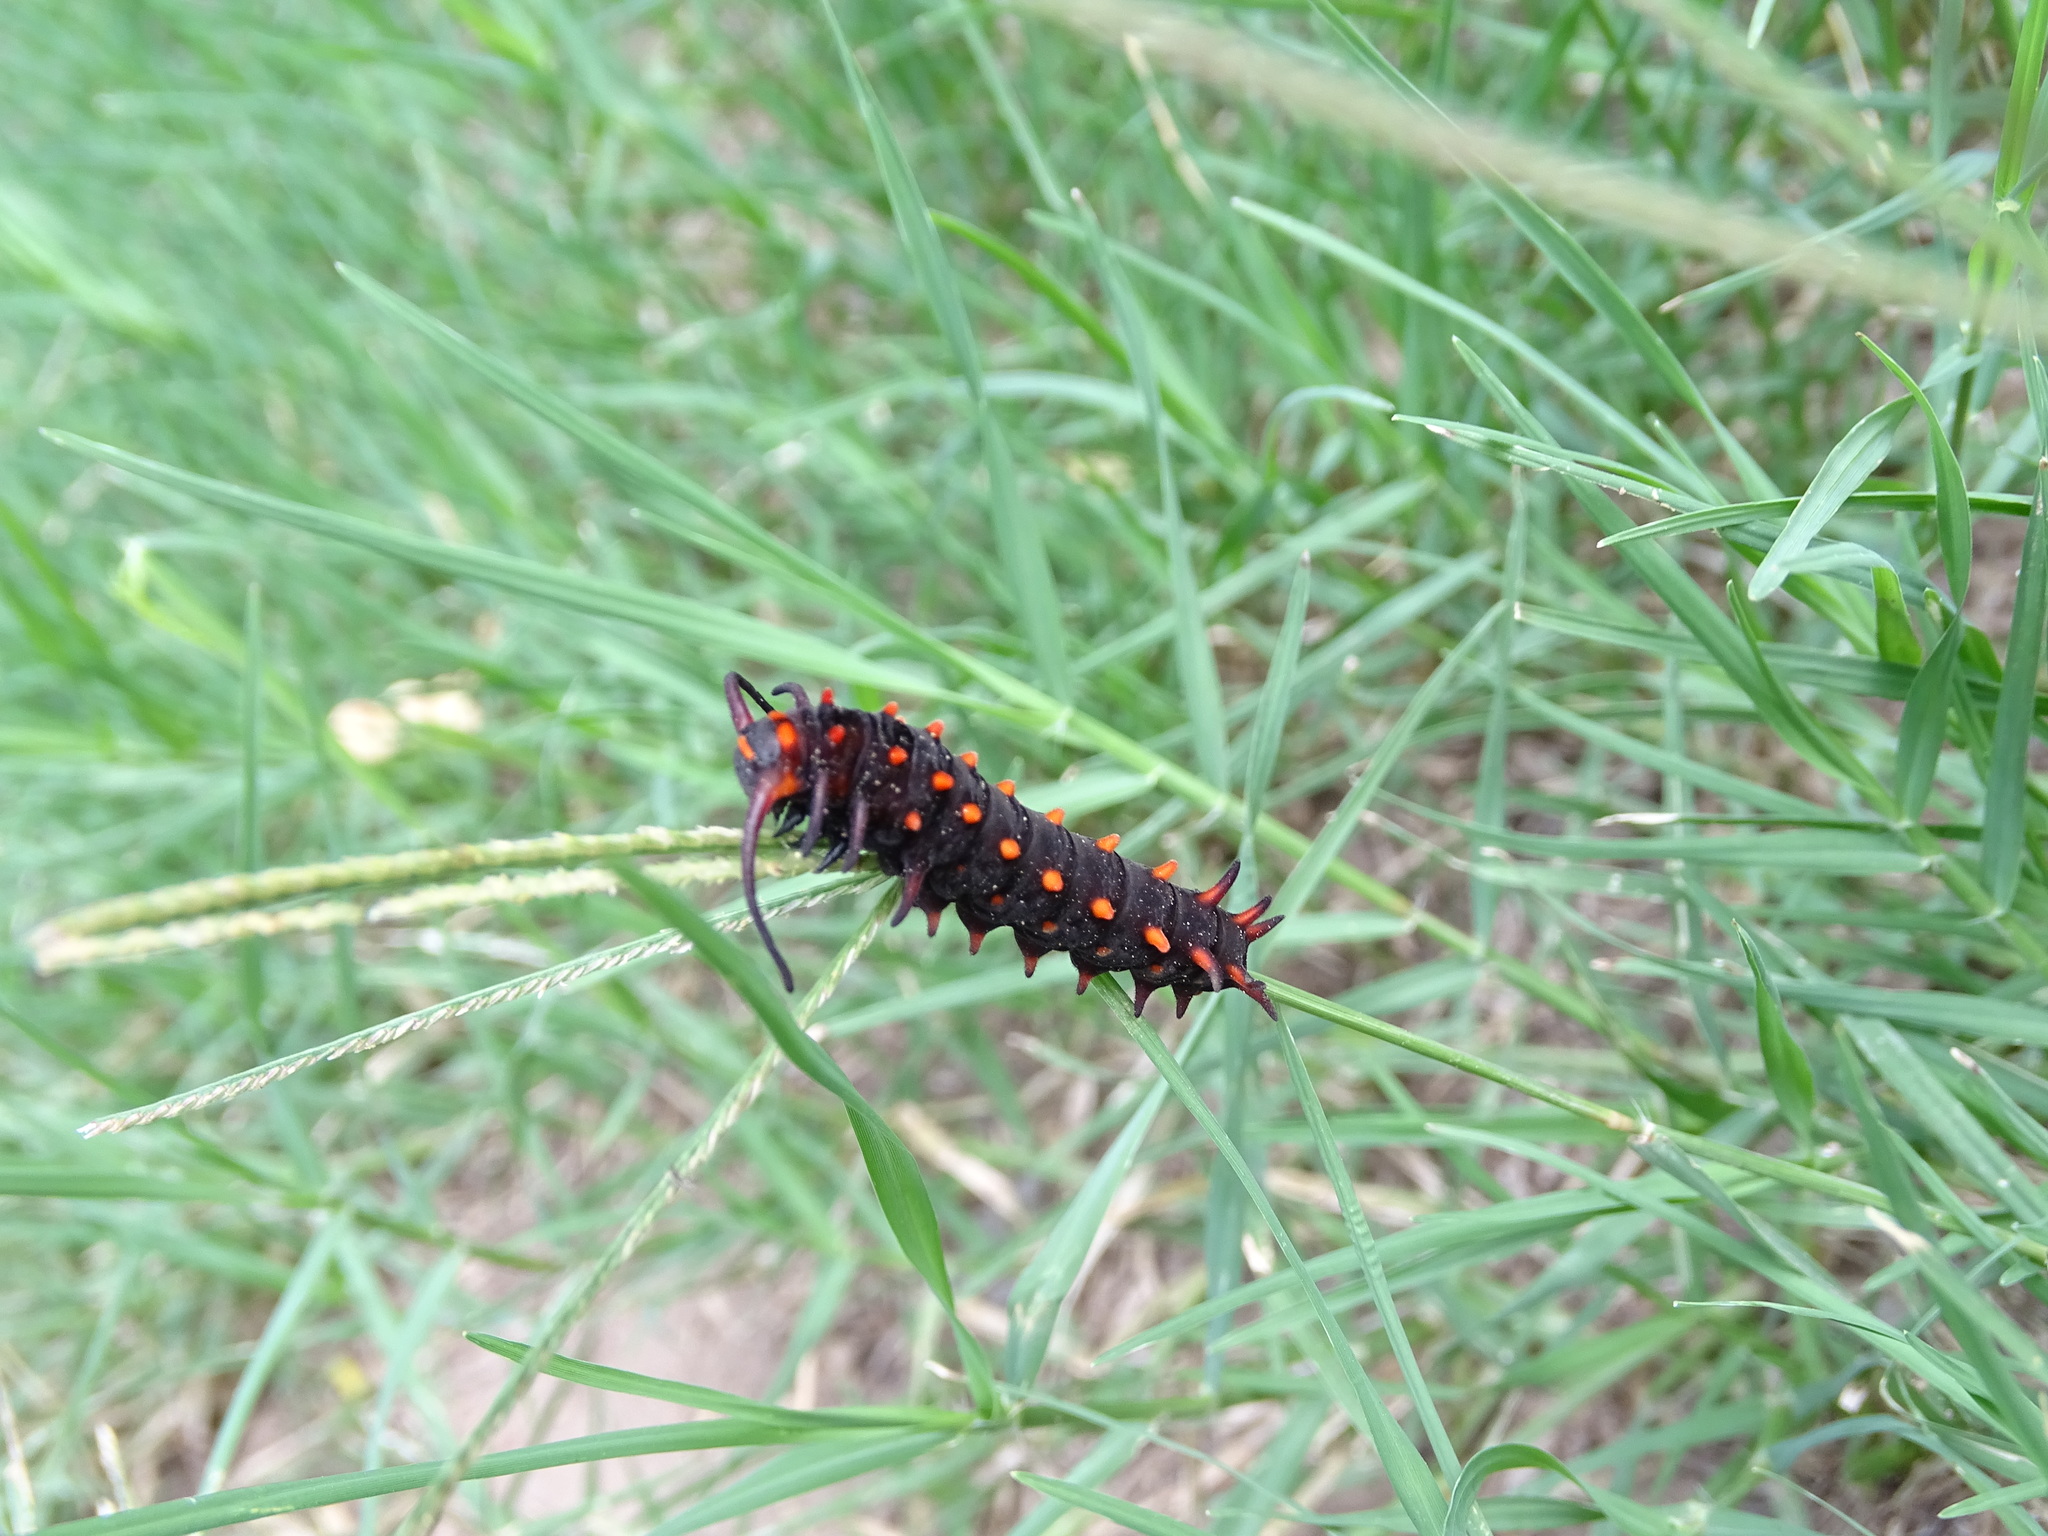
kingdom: Animalia
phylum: Arthropoda
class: Insecta
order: Lepidoptera
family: Papilionidae
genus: Battus
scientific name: Battus philenor
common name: Pipevine swallowtail
